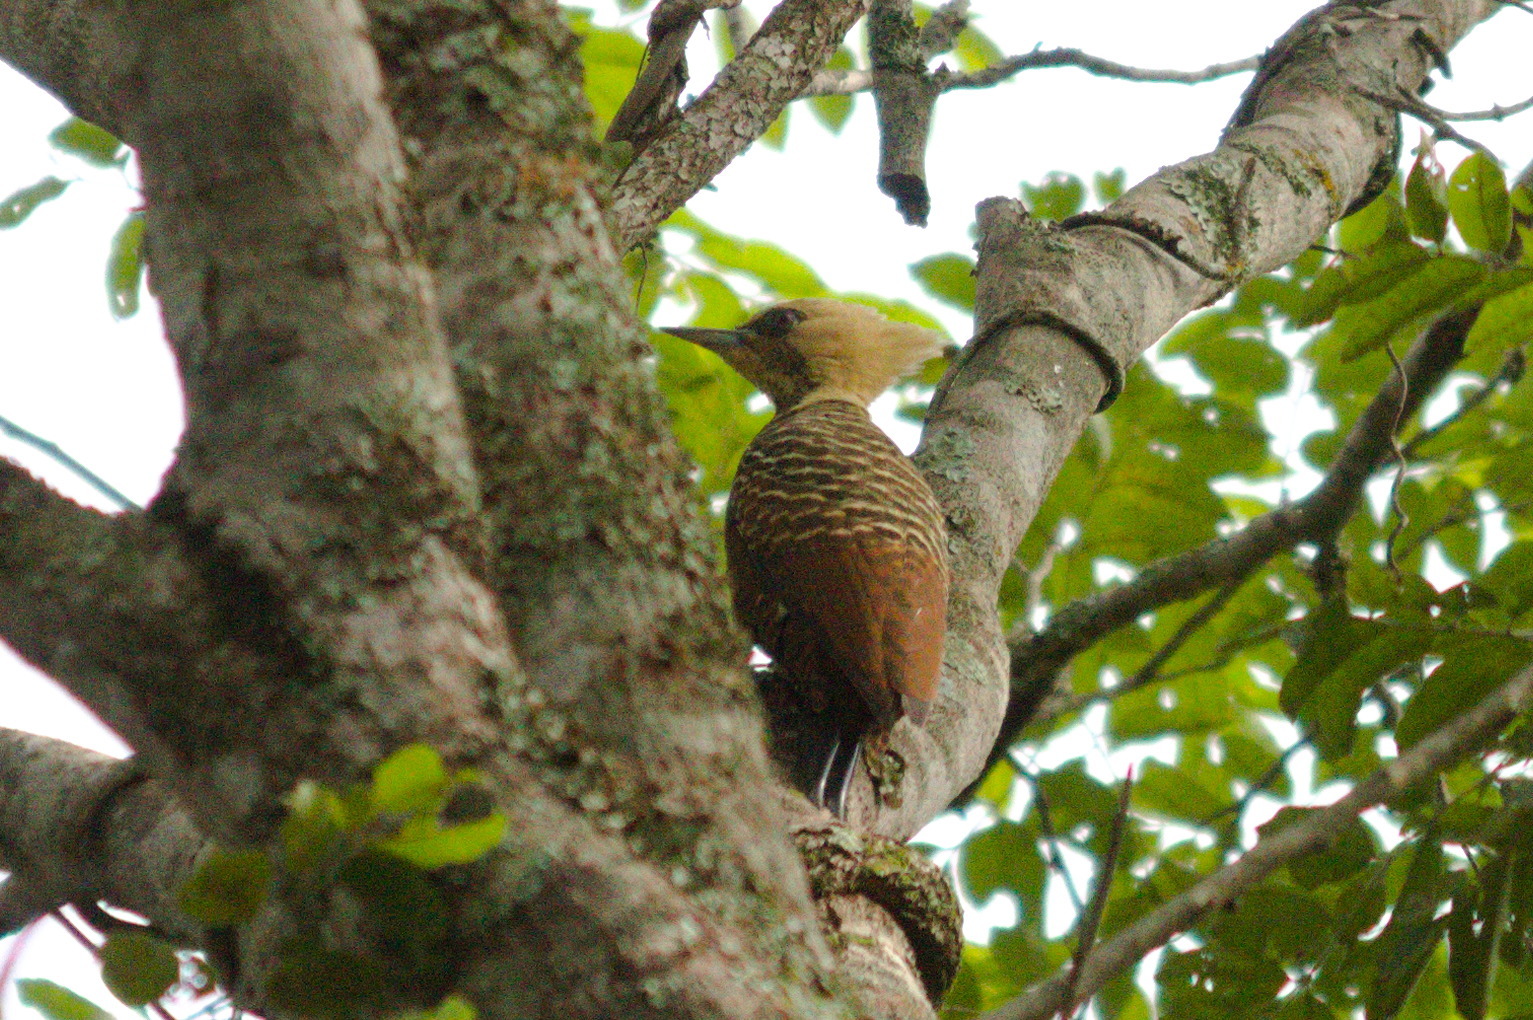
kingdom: Animalia
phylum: Chordata
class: Aves
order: Piciformes
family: Picidae
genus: Celeus
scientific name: Celeus lugubris
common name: Pale-crested woodpecker
